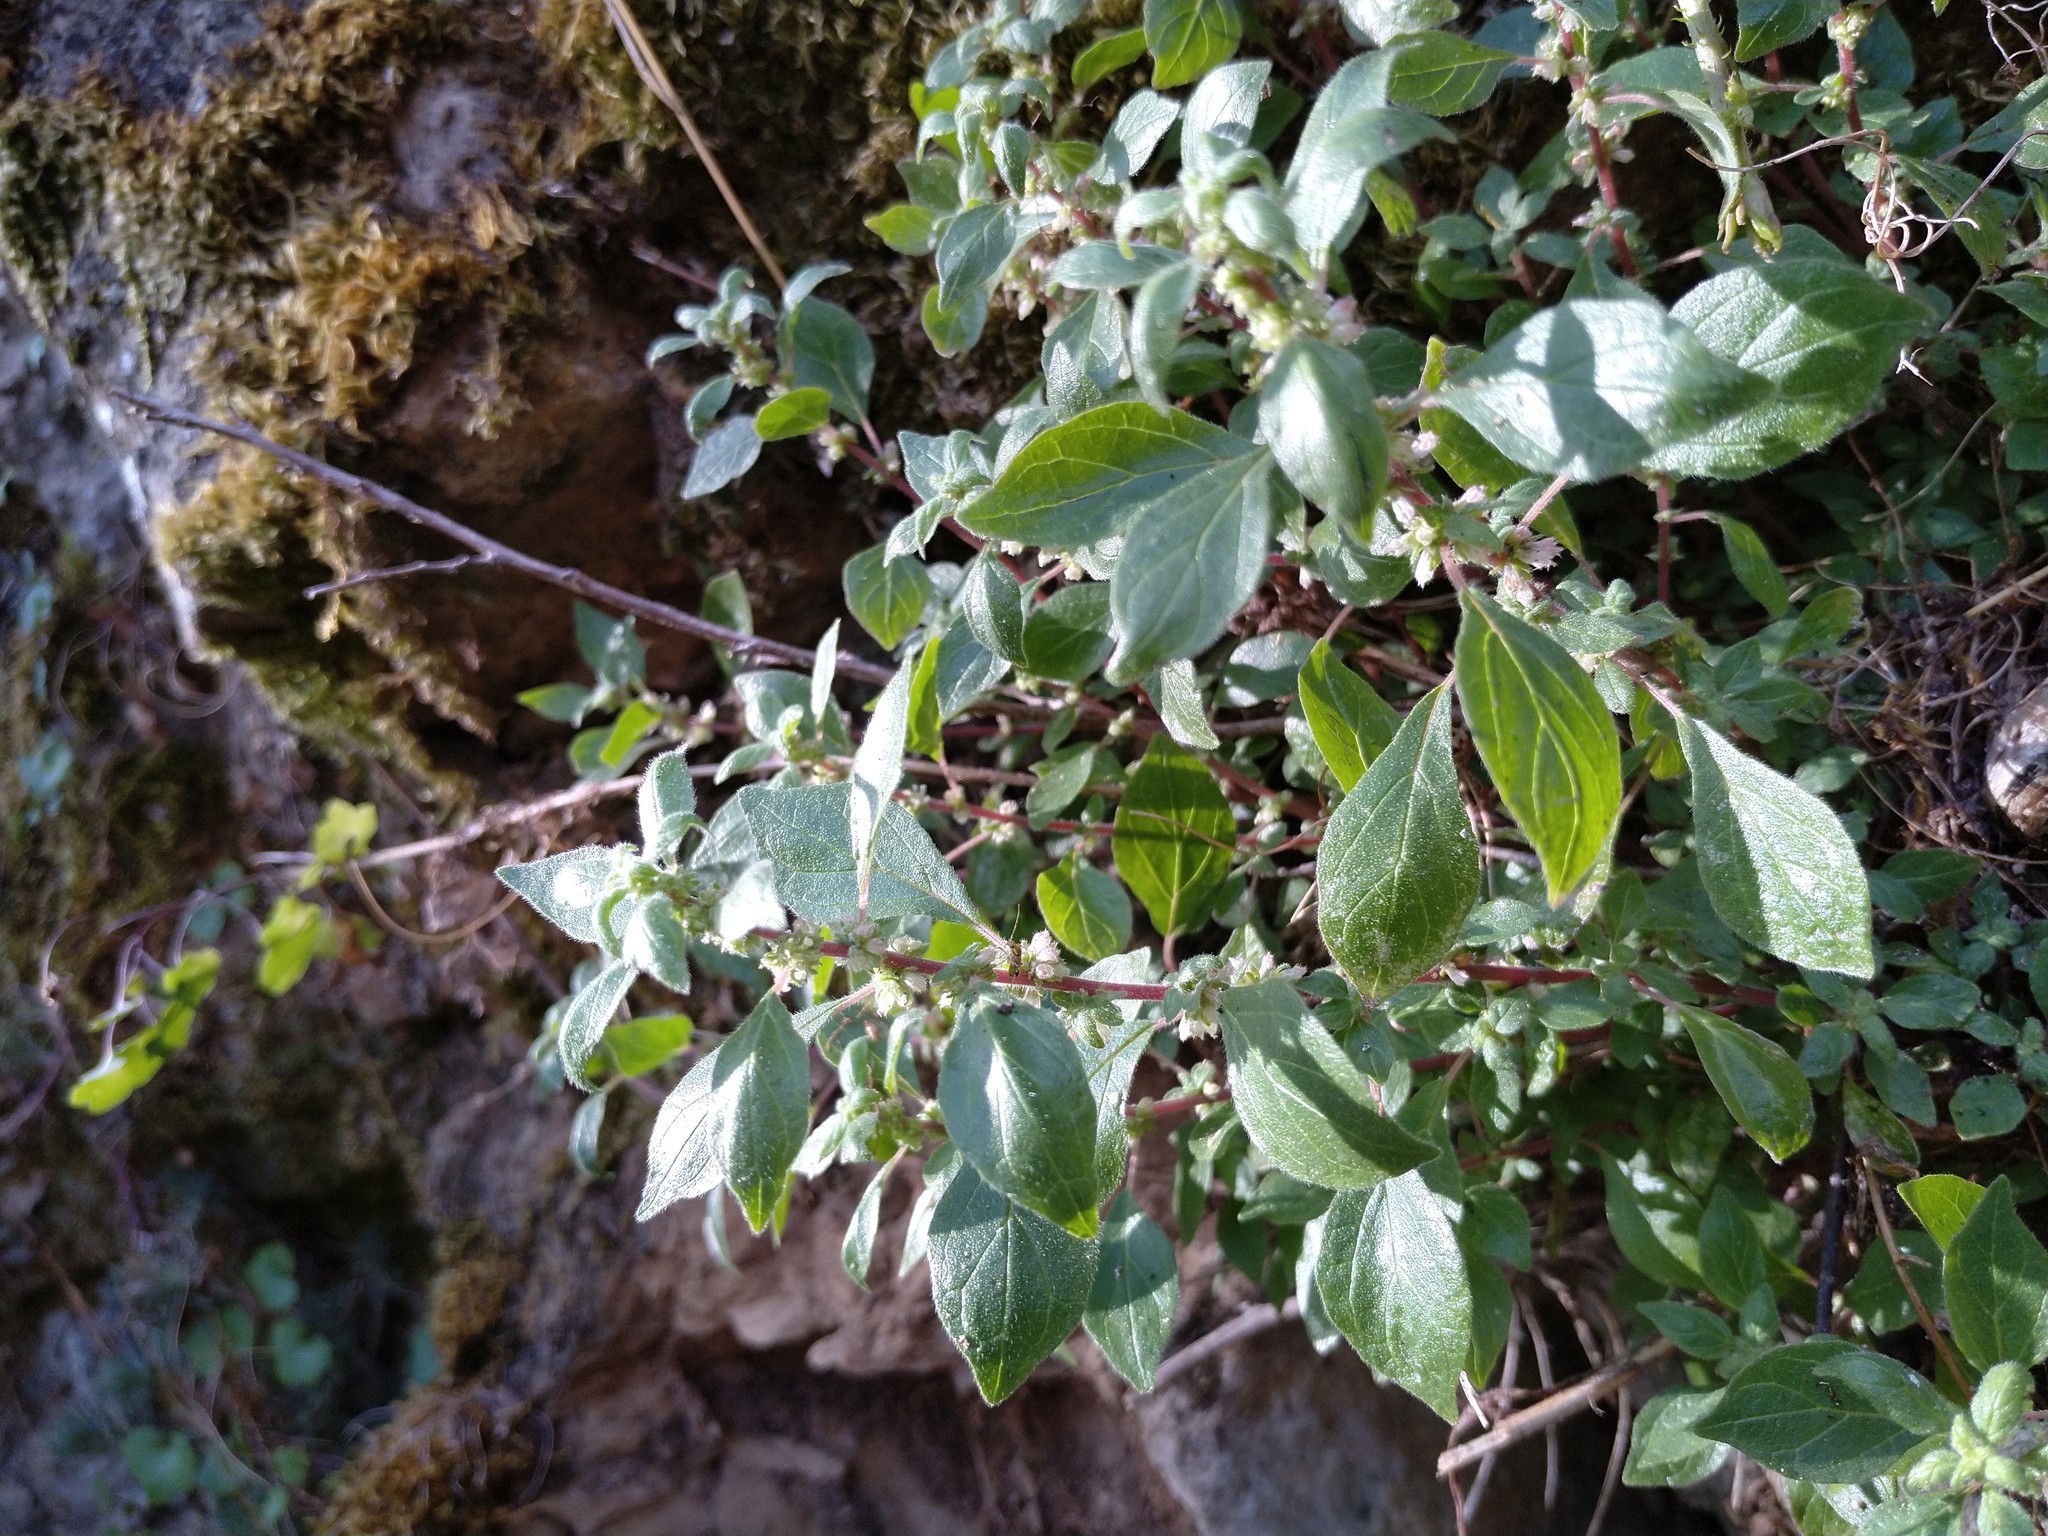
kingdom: Plantae
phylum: Tracheophyta
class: Magnoliopsida
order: Rosales
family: Urticaceae
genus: Parietaria
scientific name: Parietaria judaica
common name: Pellitory-of-the-wall
